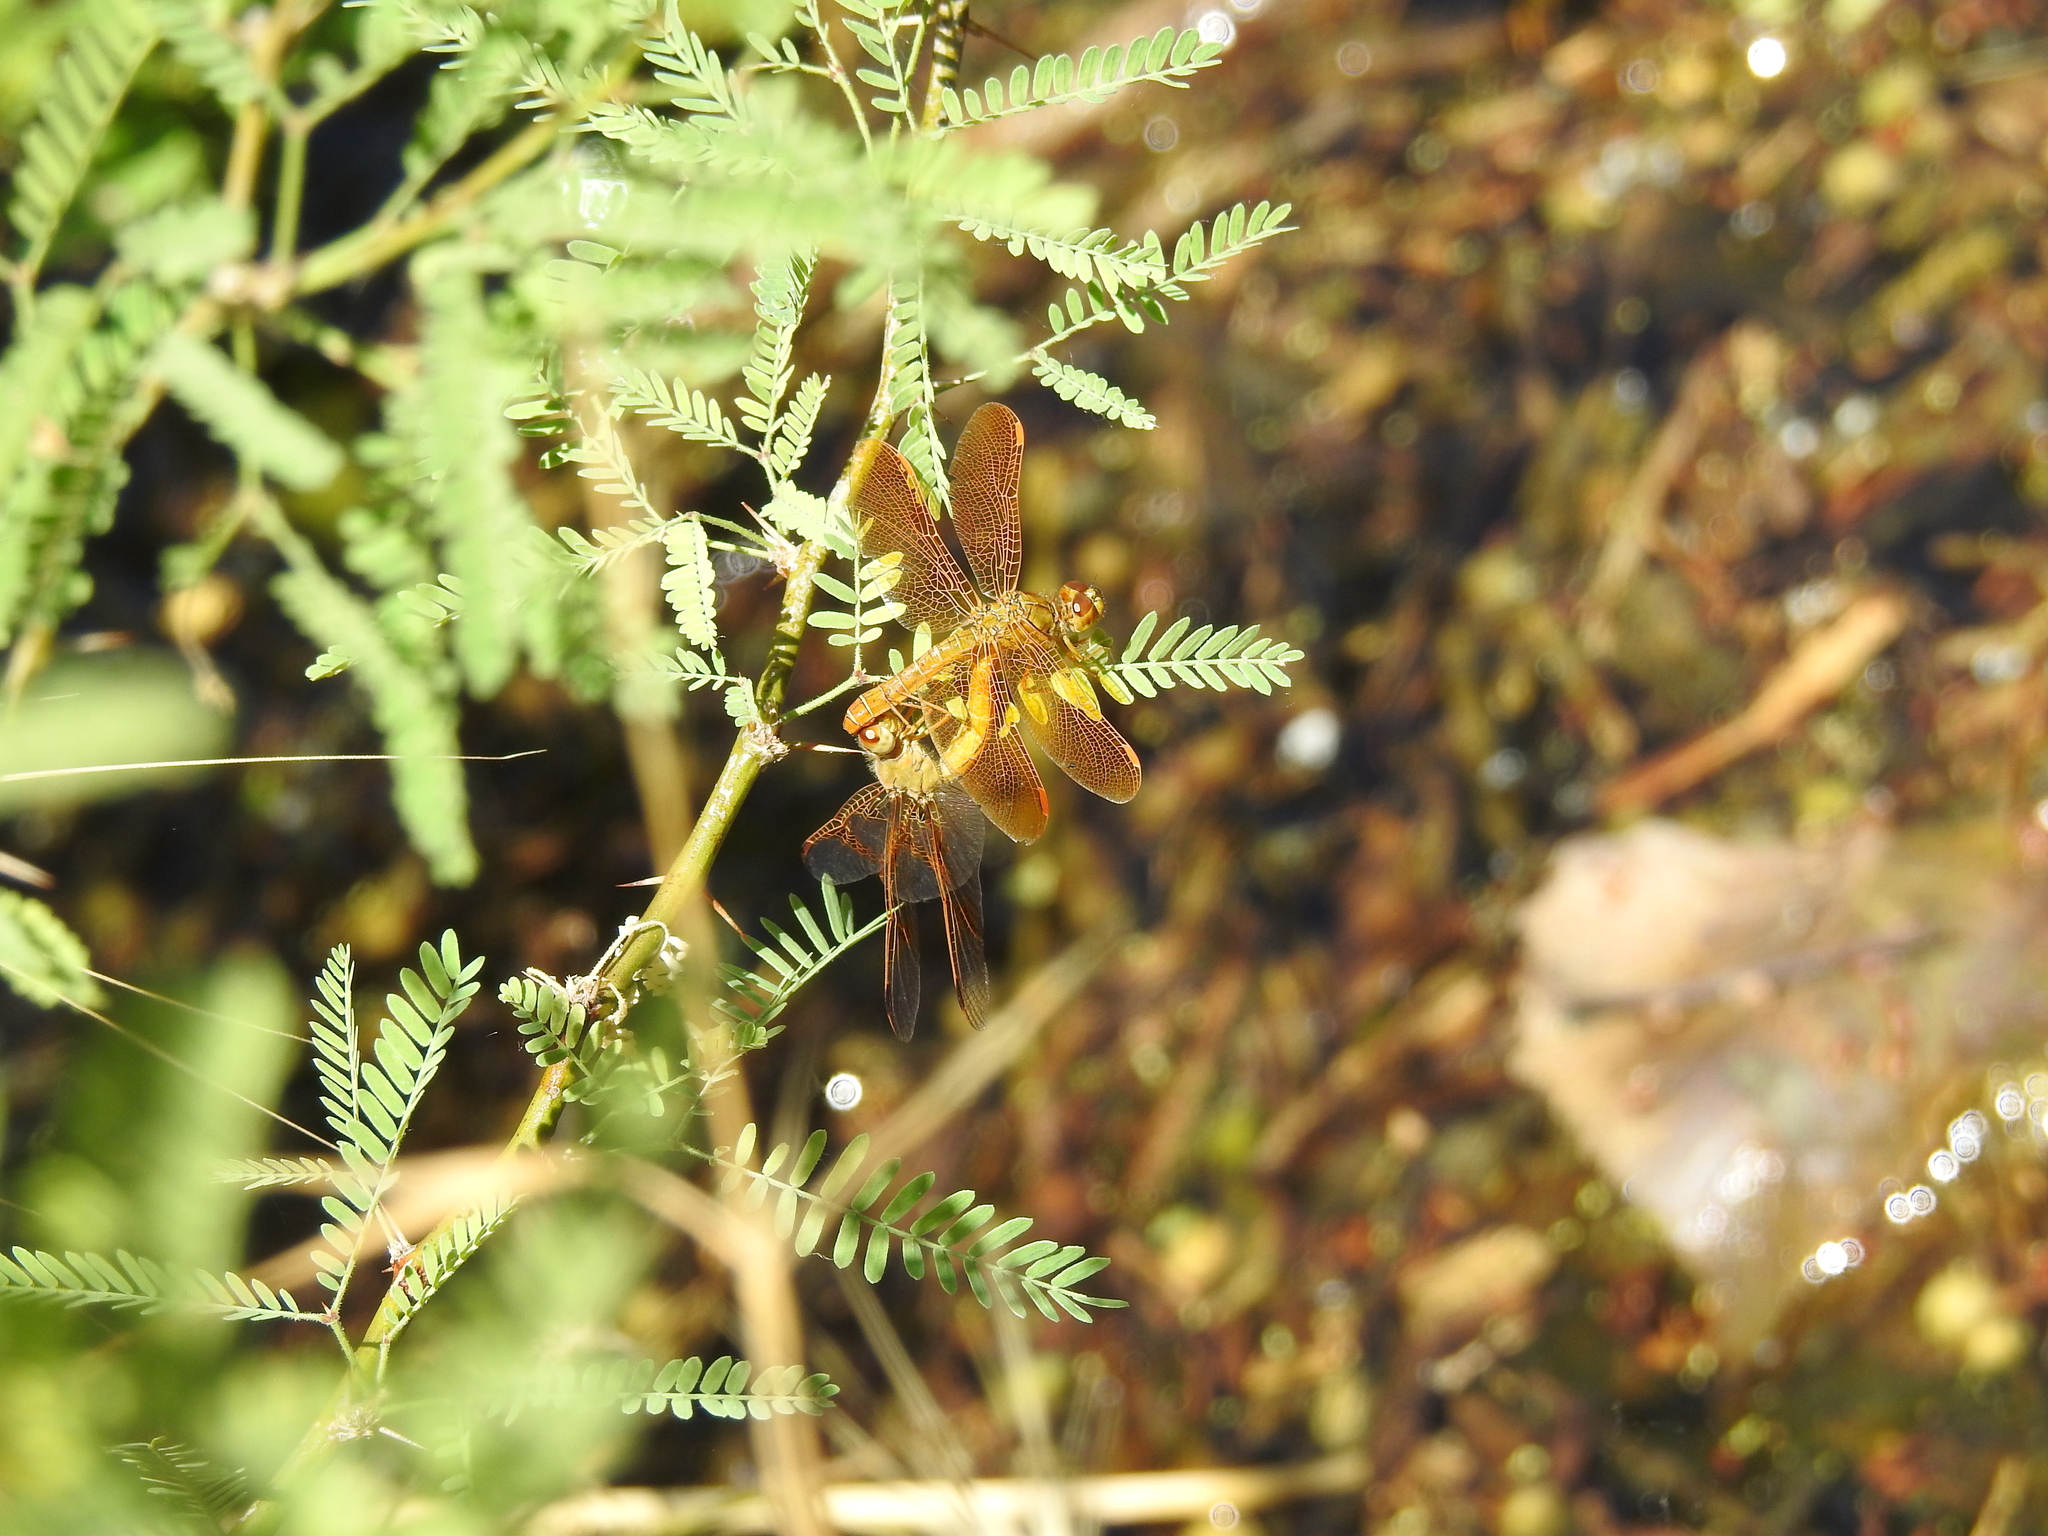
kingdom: Animalia
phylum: Arthropoda
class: Insecta
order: Odonata
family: Libellulidae
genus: Perithemis
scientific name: Perithemis intensa
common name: Mexican amberwing
